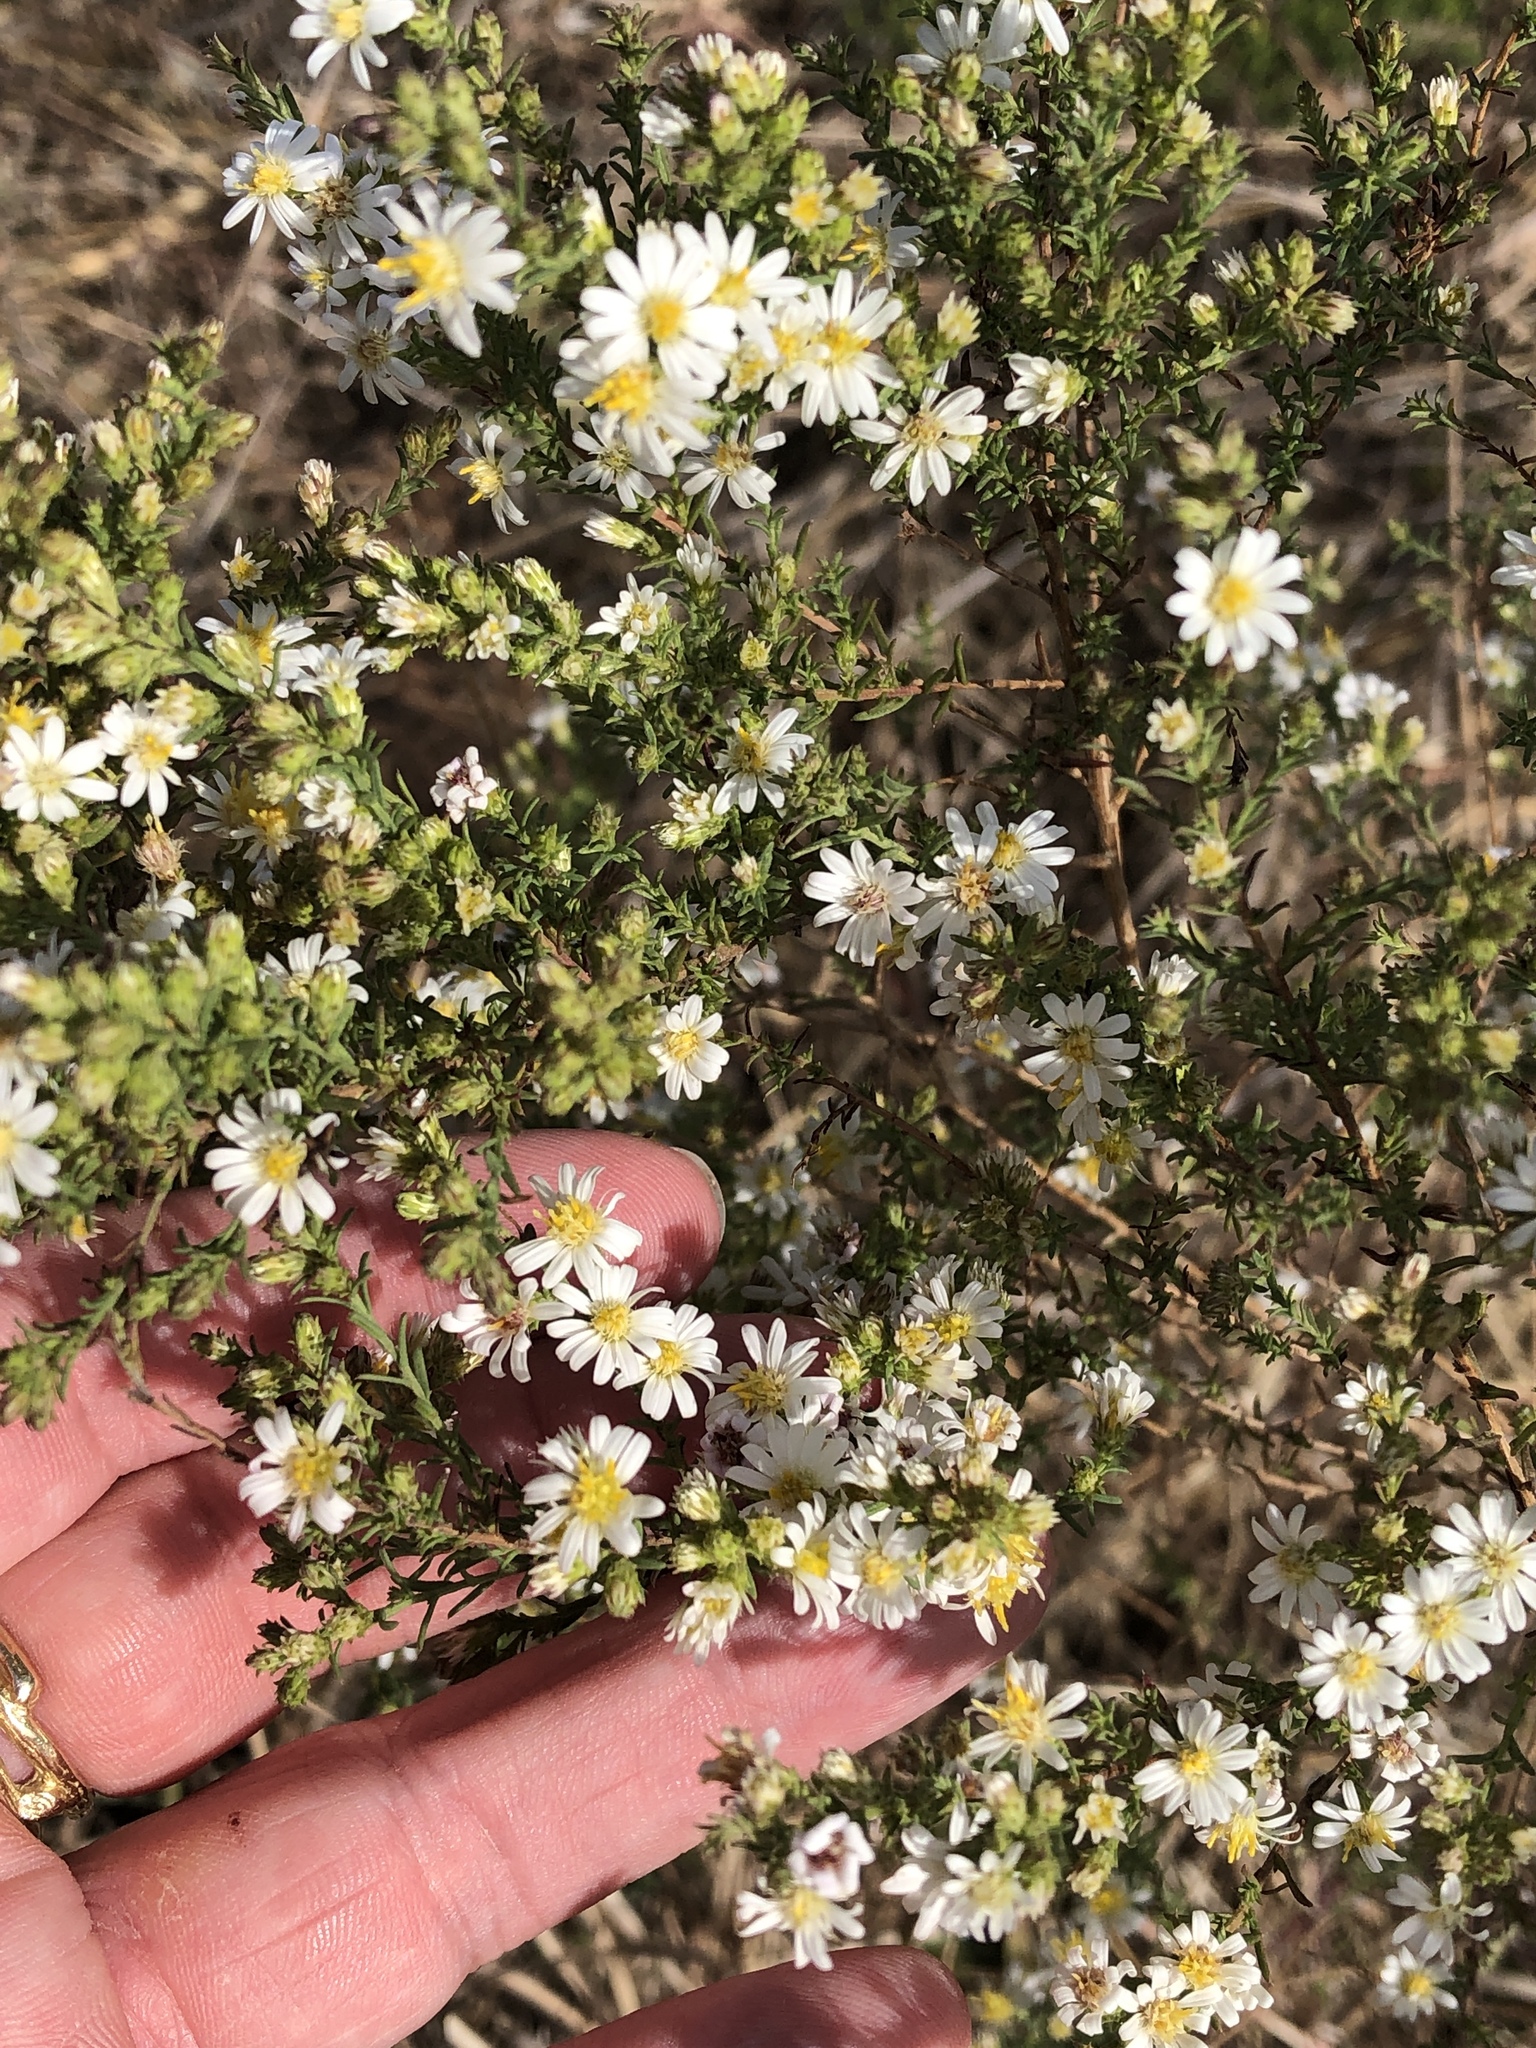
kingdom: Plantae
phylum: Tracheophyta
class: Magnoliopsida
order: Asterales
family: Asteraceae
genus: Symphyotrichum
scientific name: Symphyotrichum ericoides
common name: Heath aster
